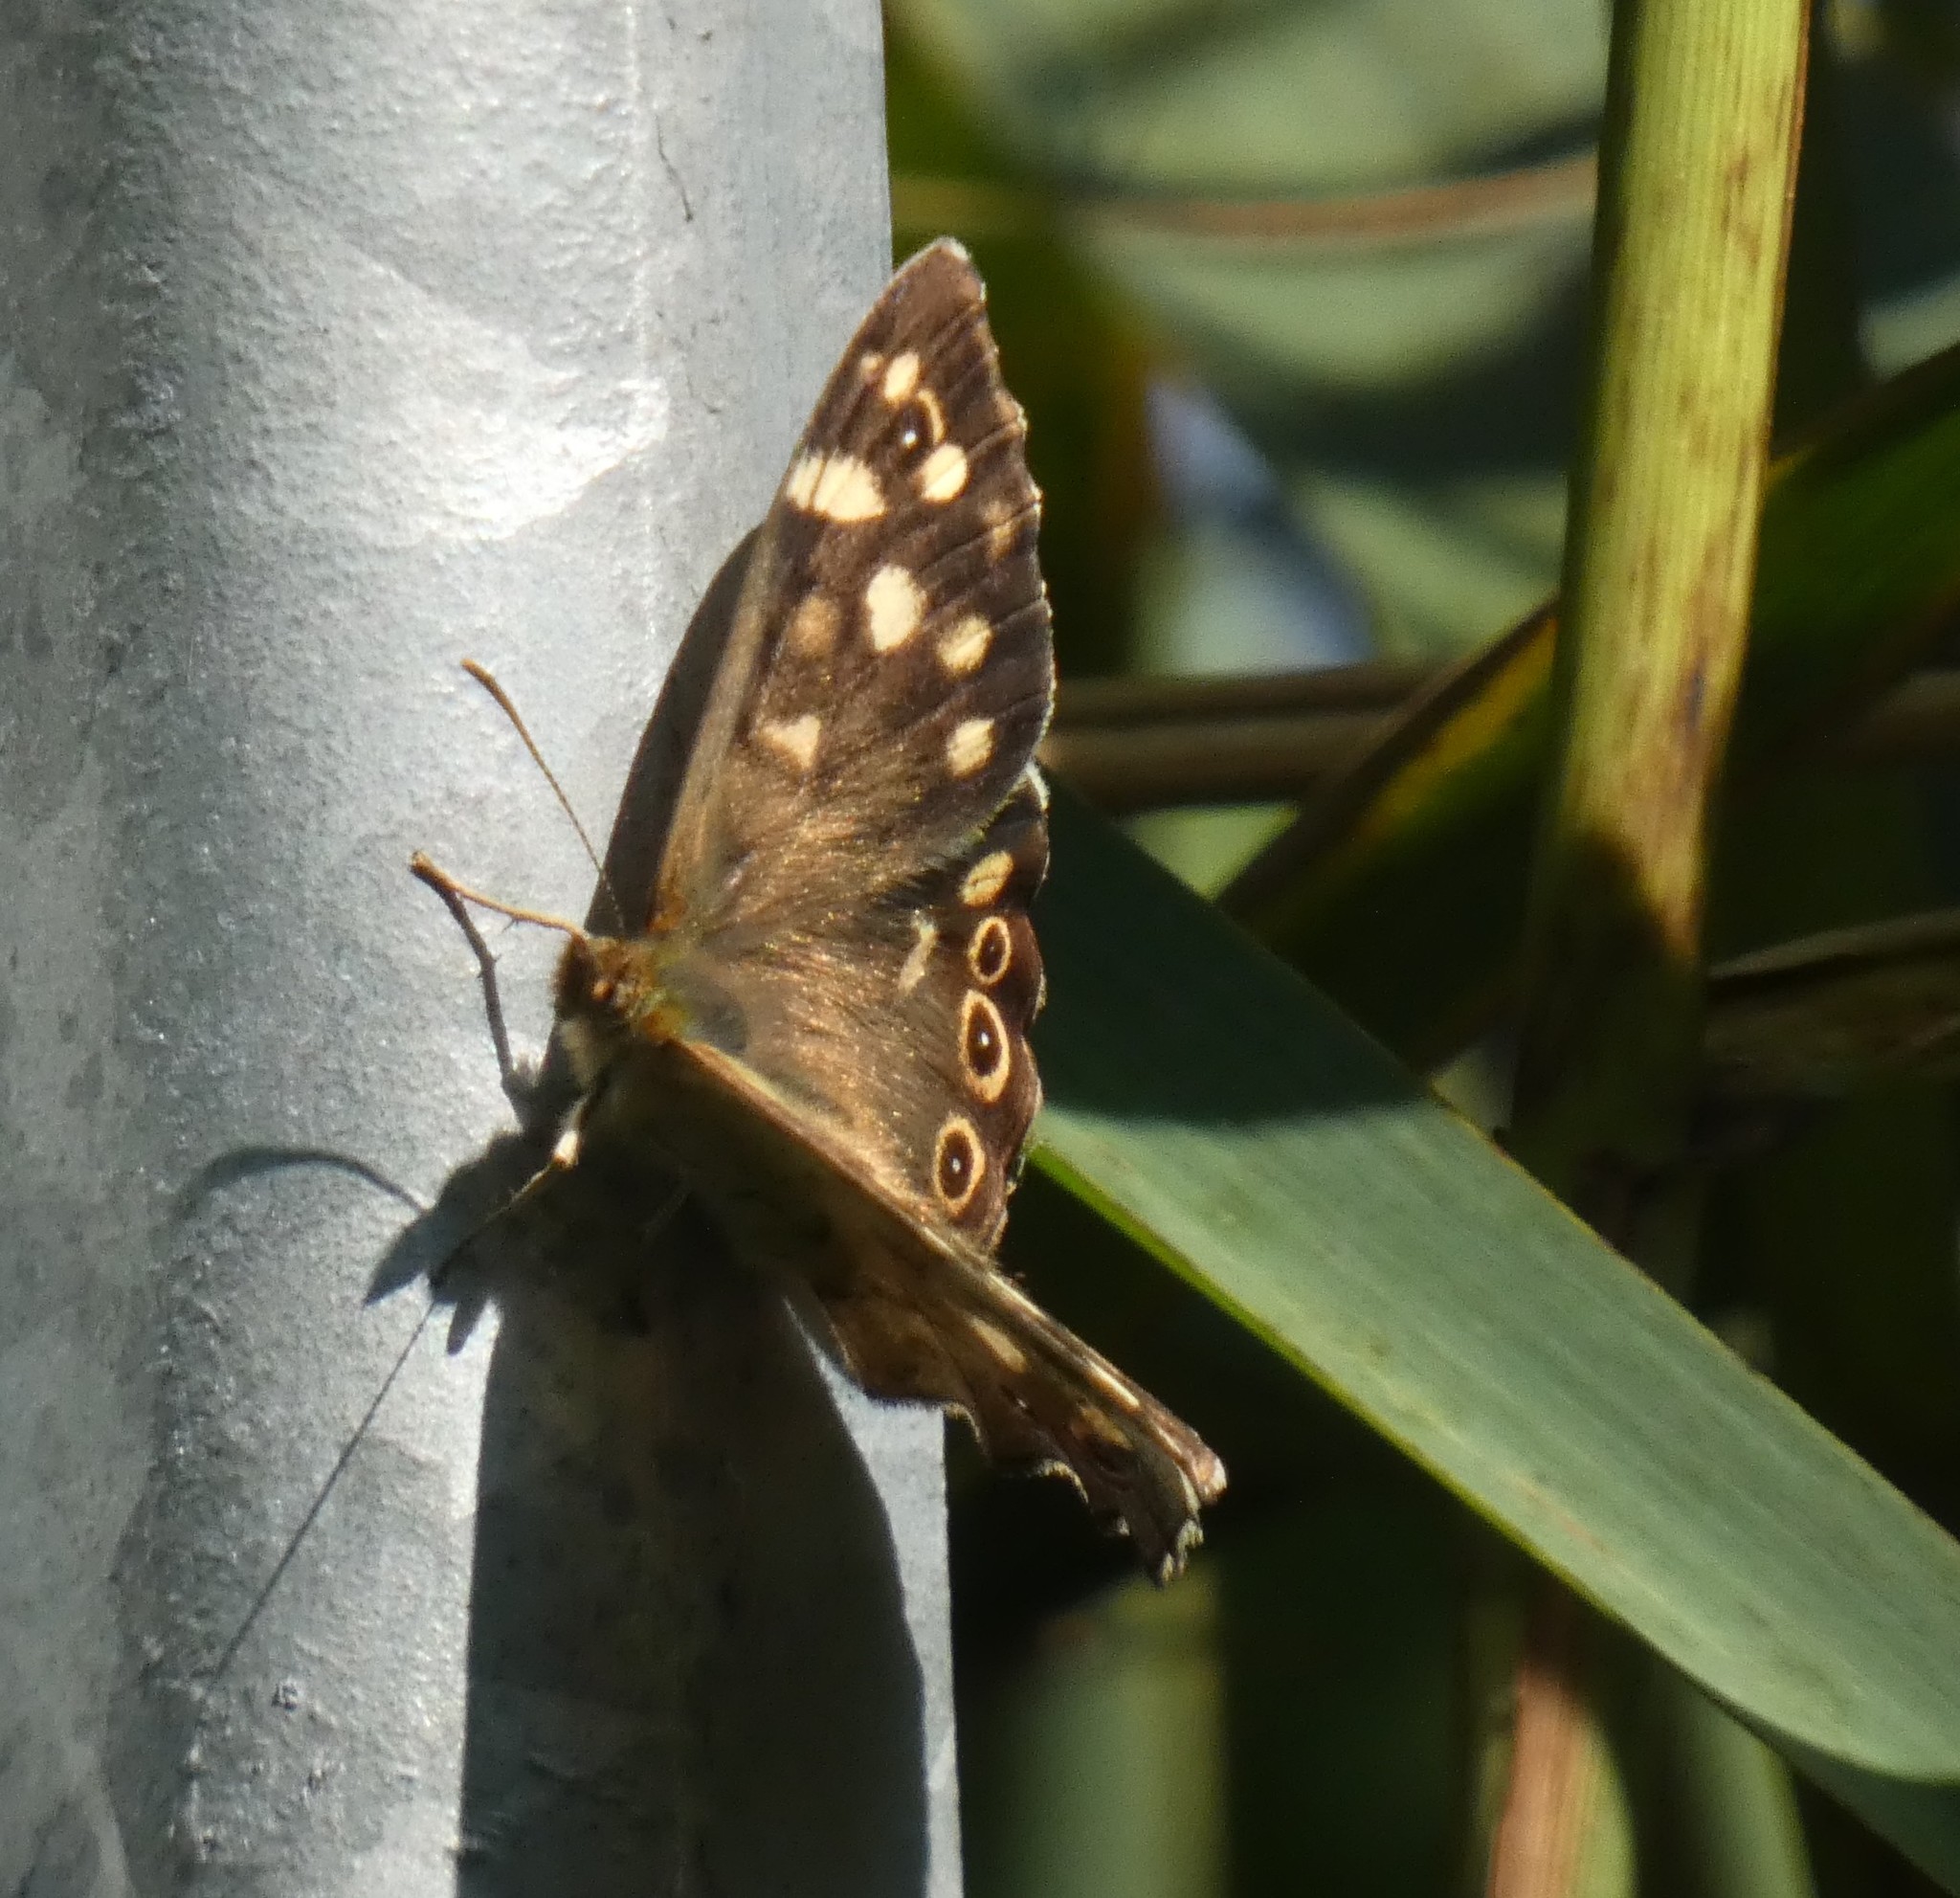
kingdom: Animalia
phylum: Arthropoda
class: Insecta
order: Lepidoptera
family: Nymphalidae
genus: Pararge
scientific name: Pararge aegeria
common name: Speckled wood
